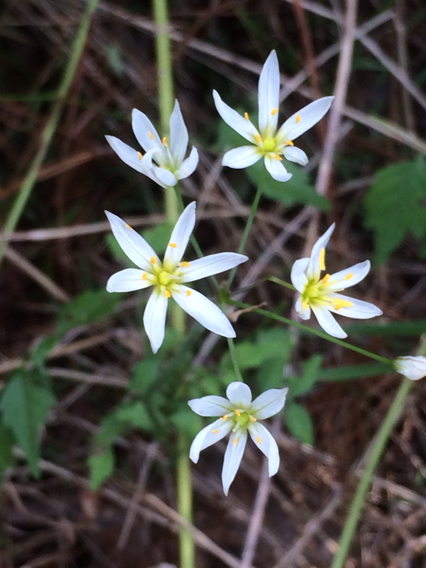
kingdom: Plantae
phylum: Tracheophyta
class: Liliopsida
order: Asparagales
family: Amaryllidaceae
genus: Nothoscordum
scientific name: Nothoscordum bivalve
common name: Crow-poison
